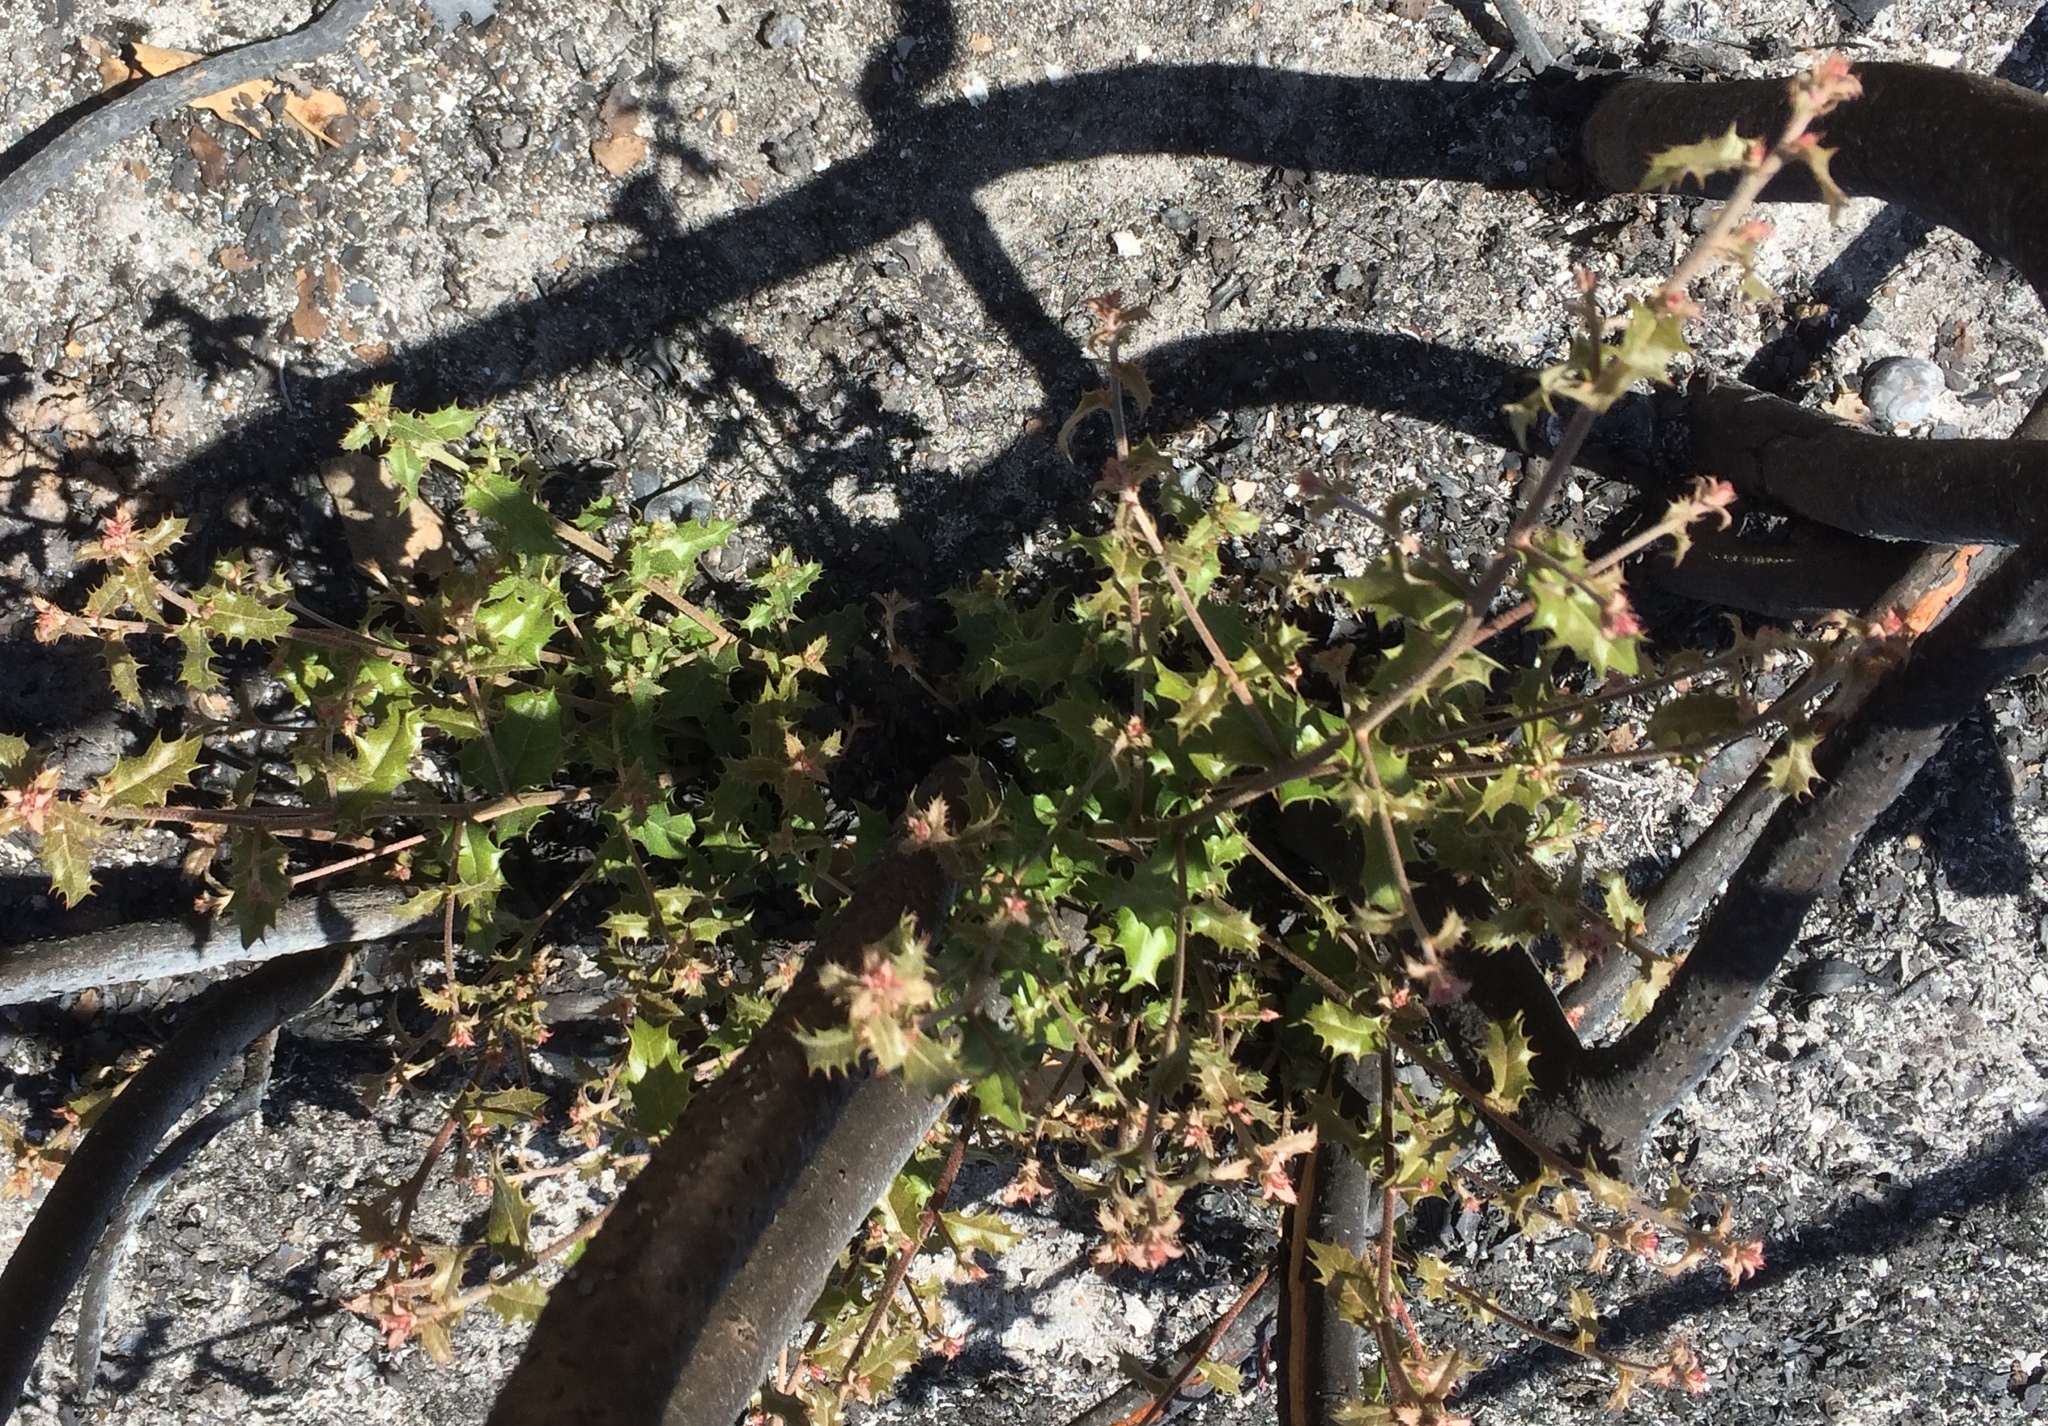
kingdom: Plantae
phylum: Tracheophyta
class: Magnoliopsida
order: Fagales
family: Fagaceae
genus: Quercus
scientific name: Quercus coccifera
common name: Kermes oak
